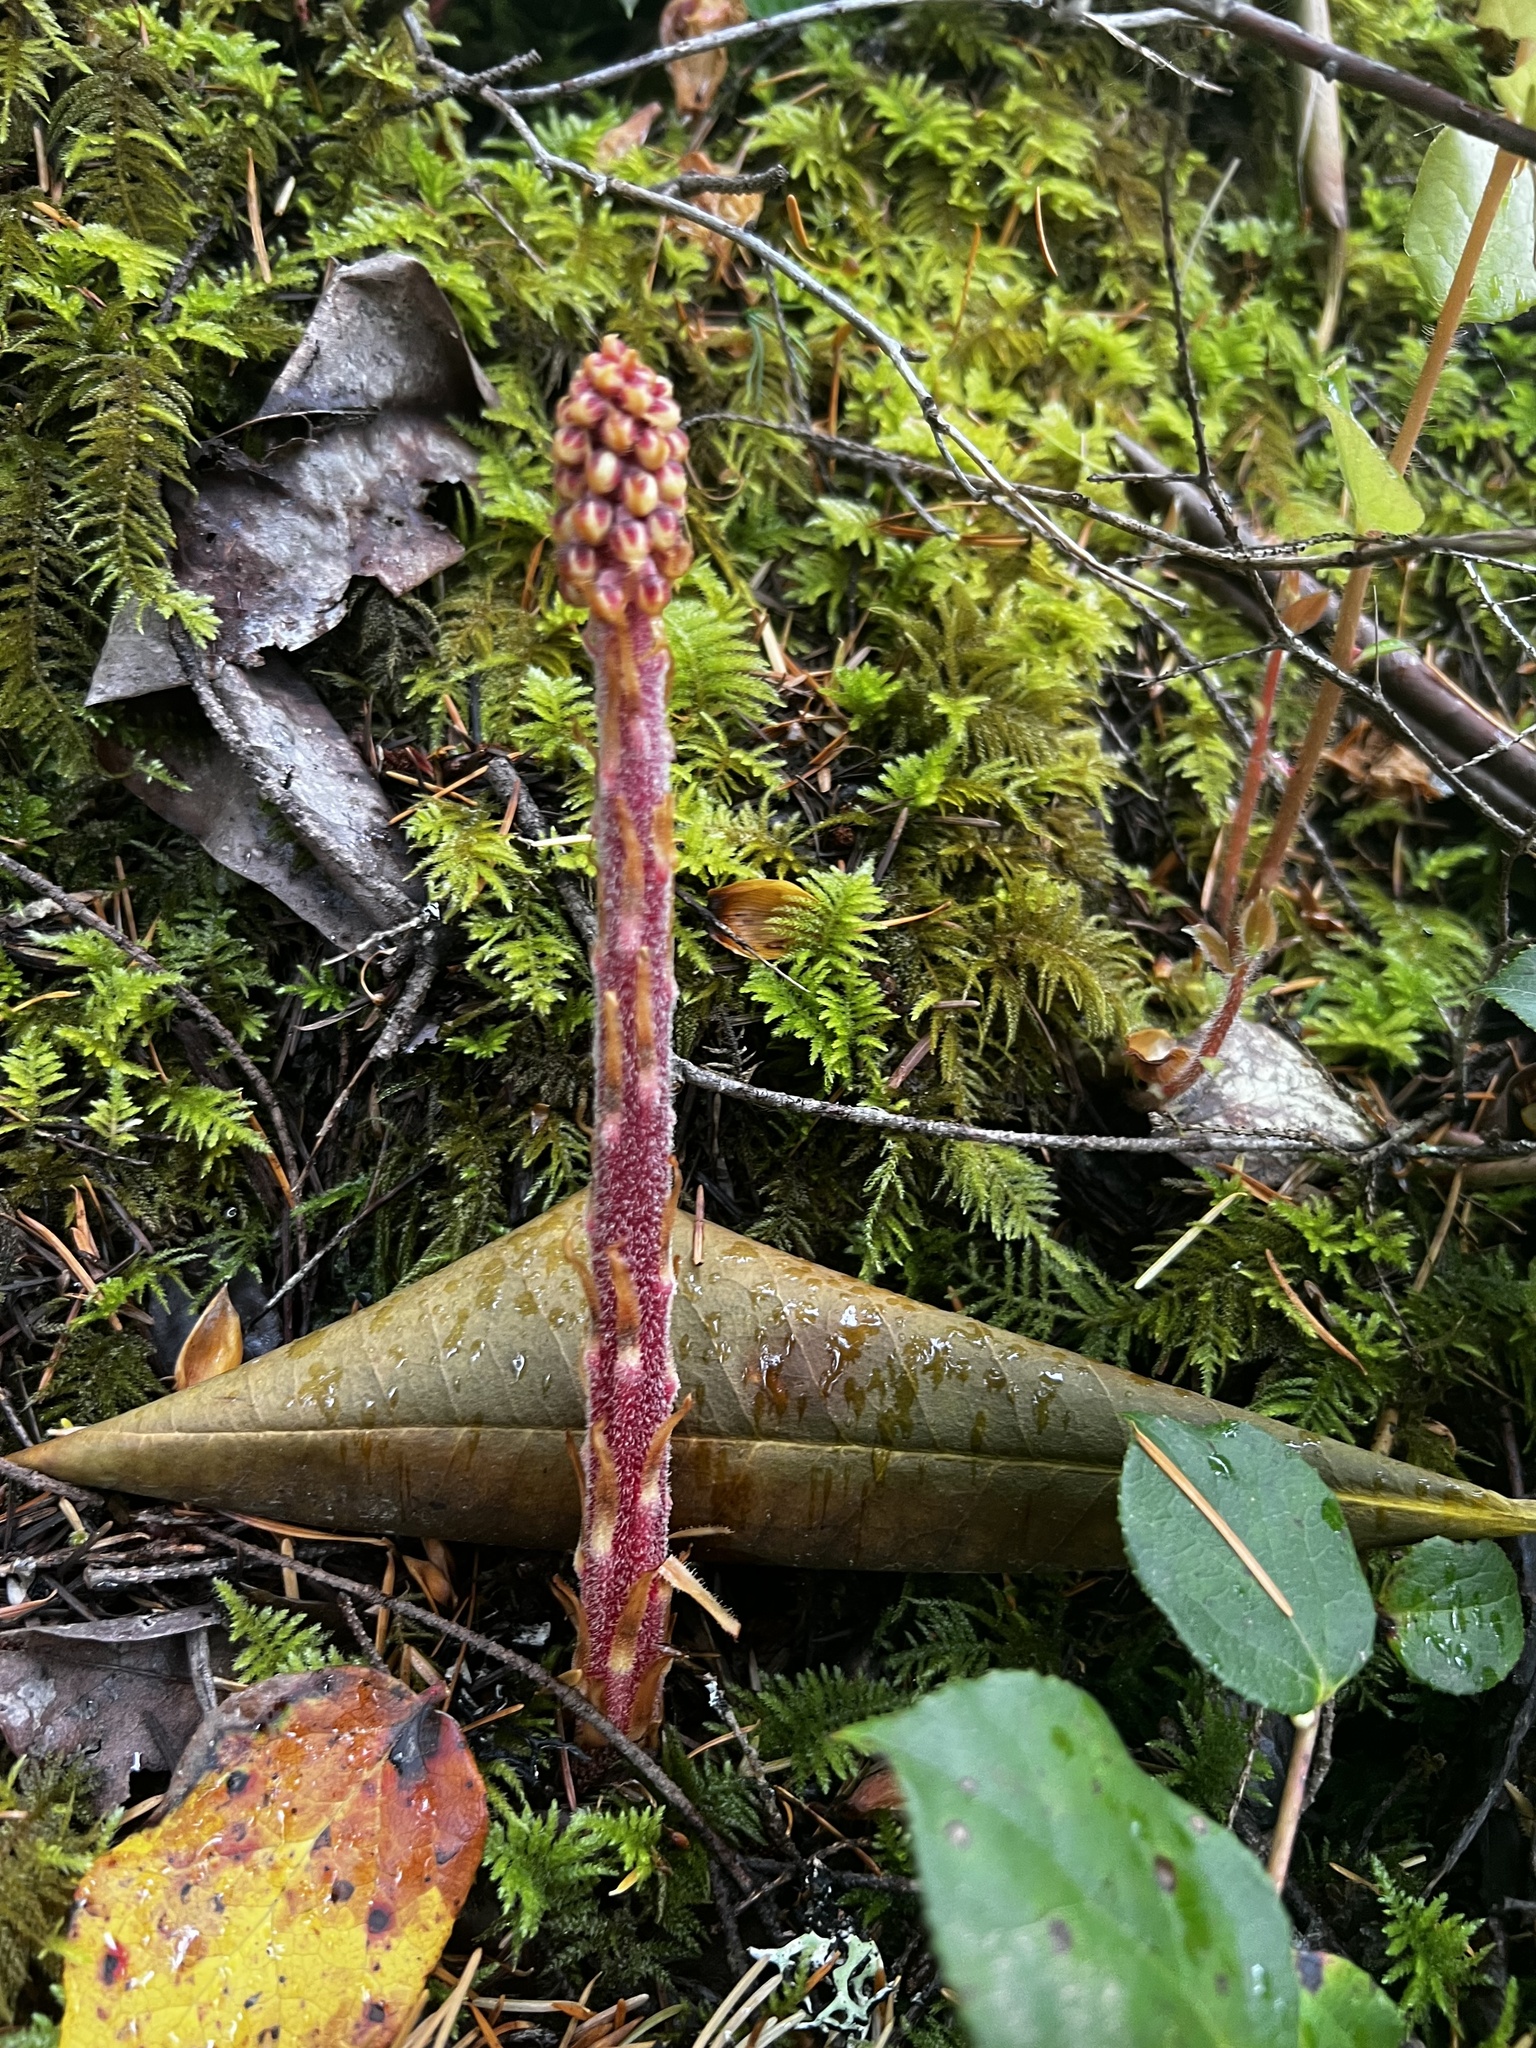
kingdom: Plantae
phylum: Tracheophyta
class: Magnoliopsida
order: Ericales
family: Ericaceae
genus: Pterospora
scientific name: Pterospora andromedea
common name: Giant bird's-nest
